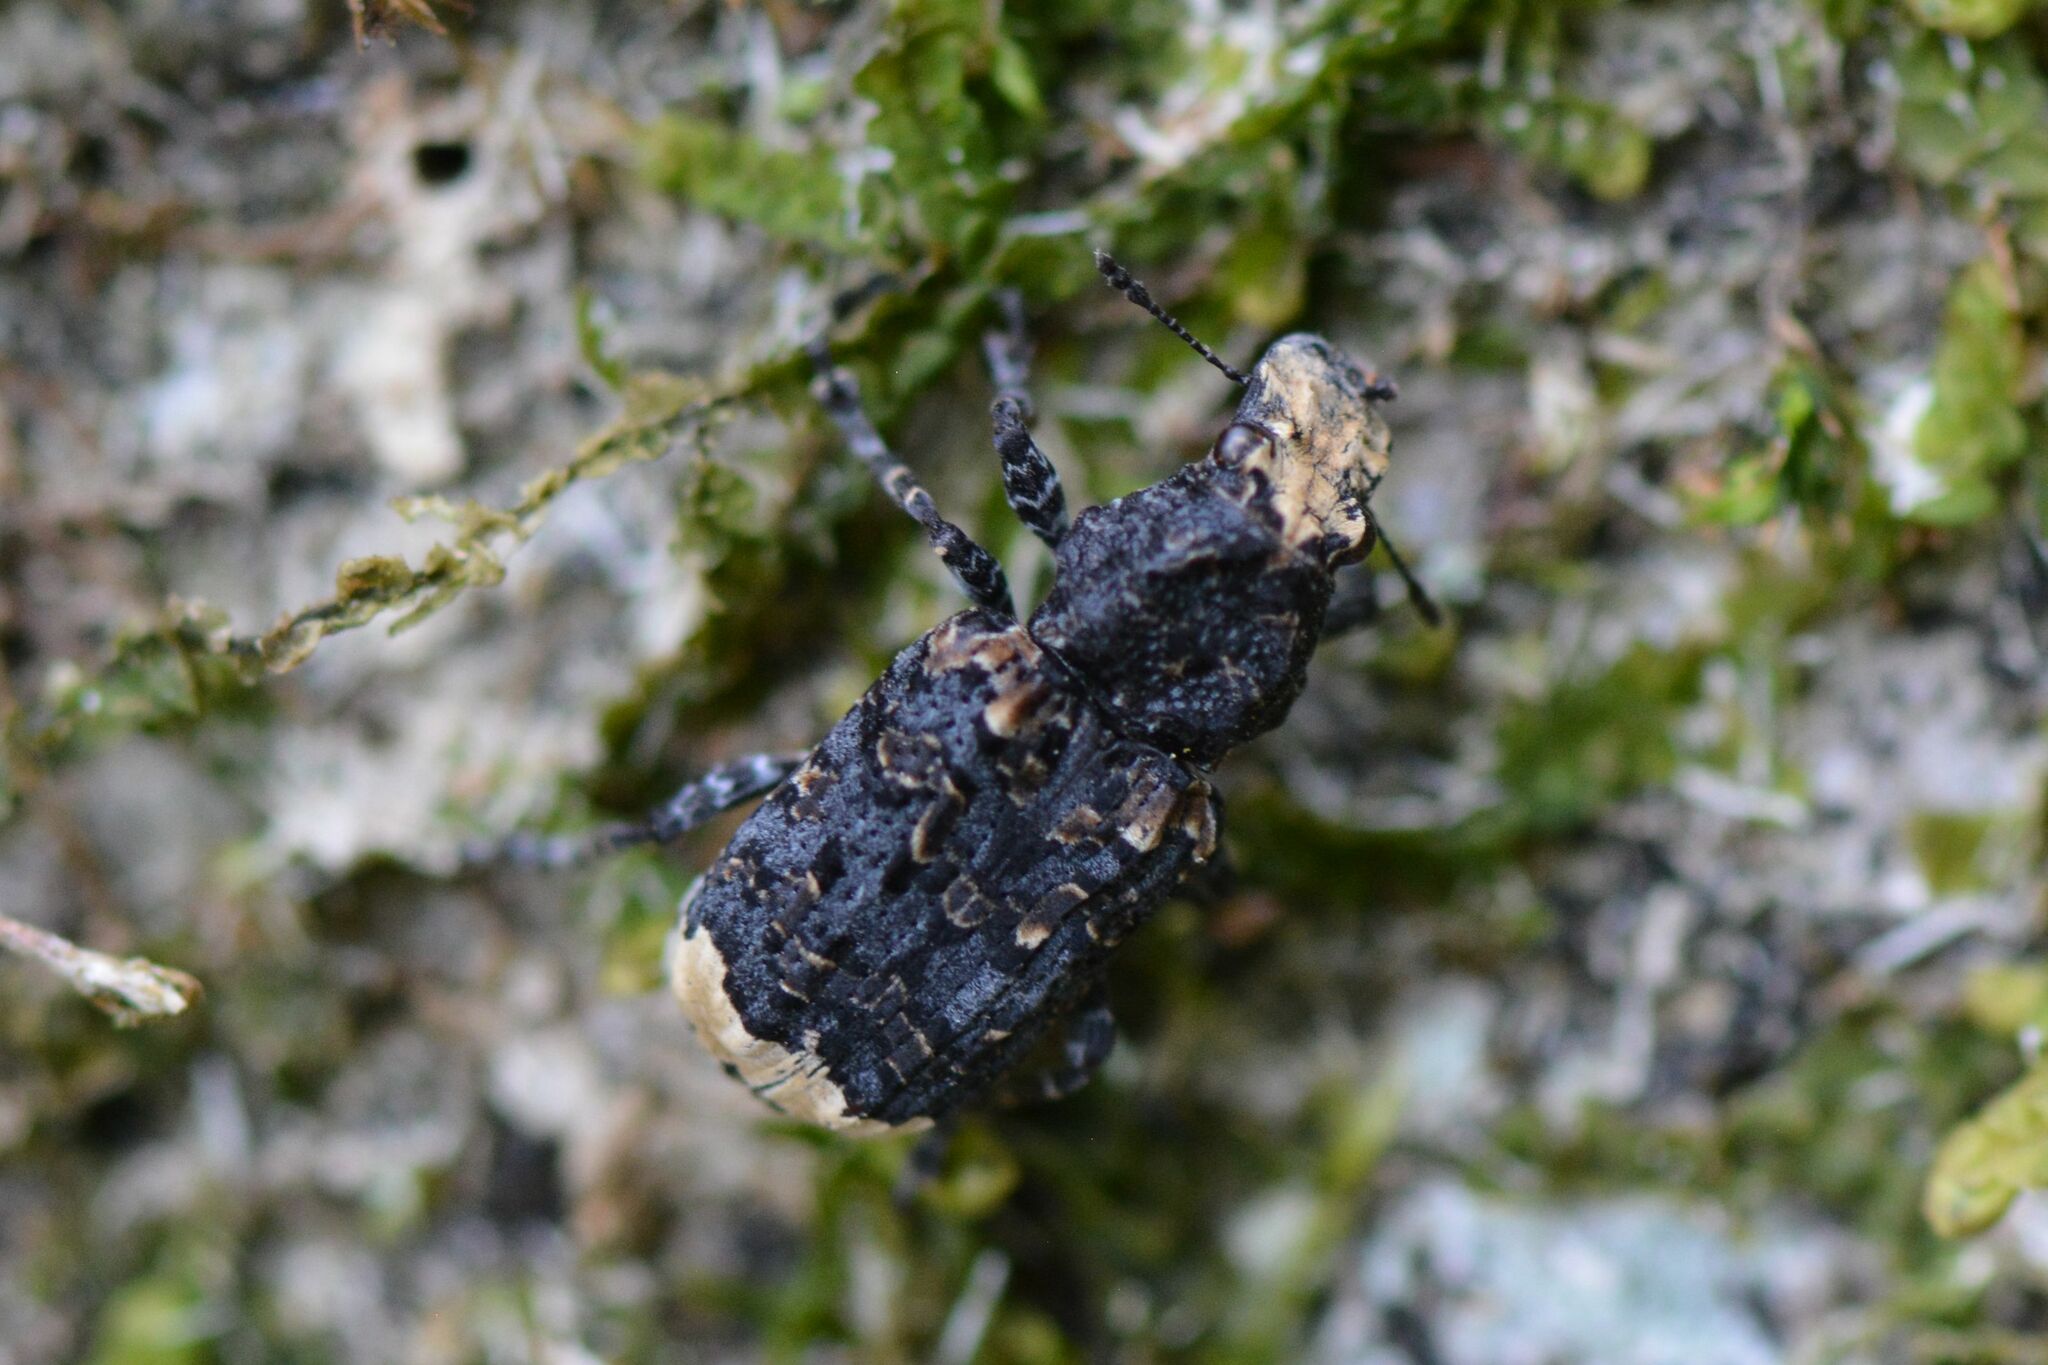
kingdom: Animalia
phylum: Arthropoda
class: Insecta
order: Coleoptera
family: Anthribidae
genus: Platyrhinus
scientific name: Platyrhinus resinosus
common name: Cramp-ball fungus weevil
